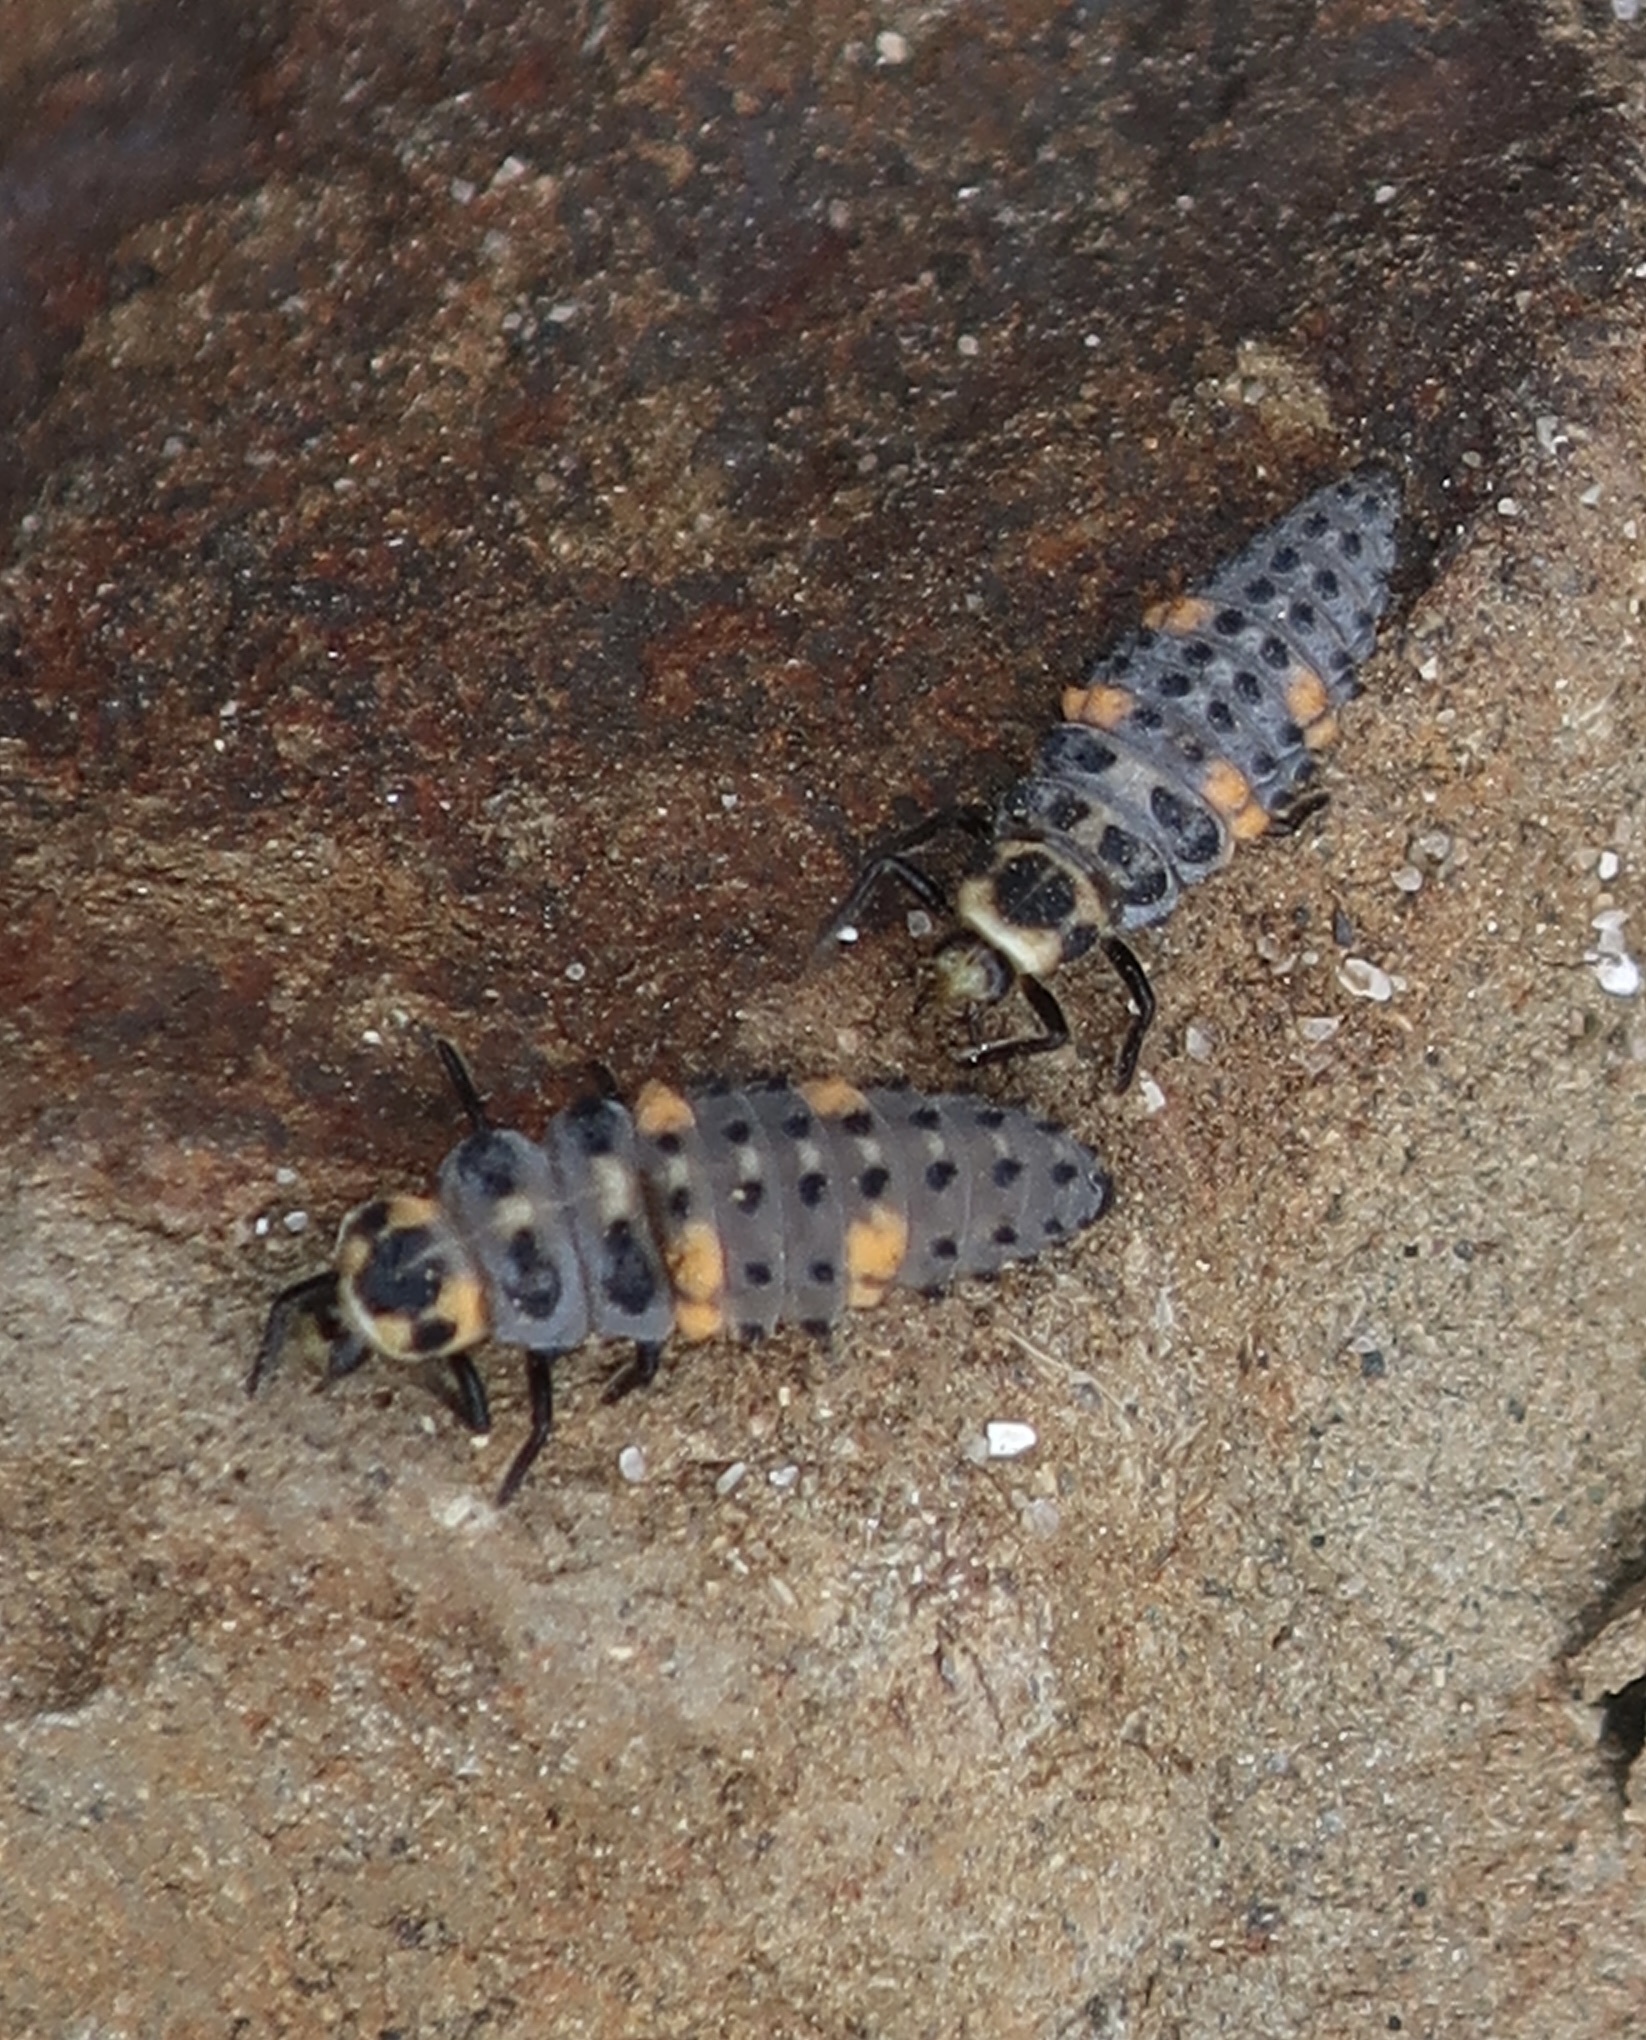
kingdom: Animalia
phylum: Arthropoda
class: Insecta
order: Coleoptera
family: Coccinellidae
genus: Coccinella
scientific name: Coccinella septempunctata
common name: Sevenspotted lady beetle
